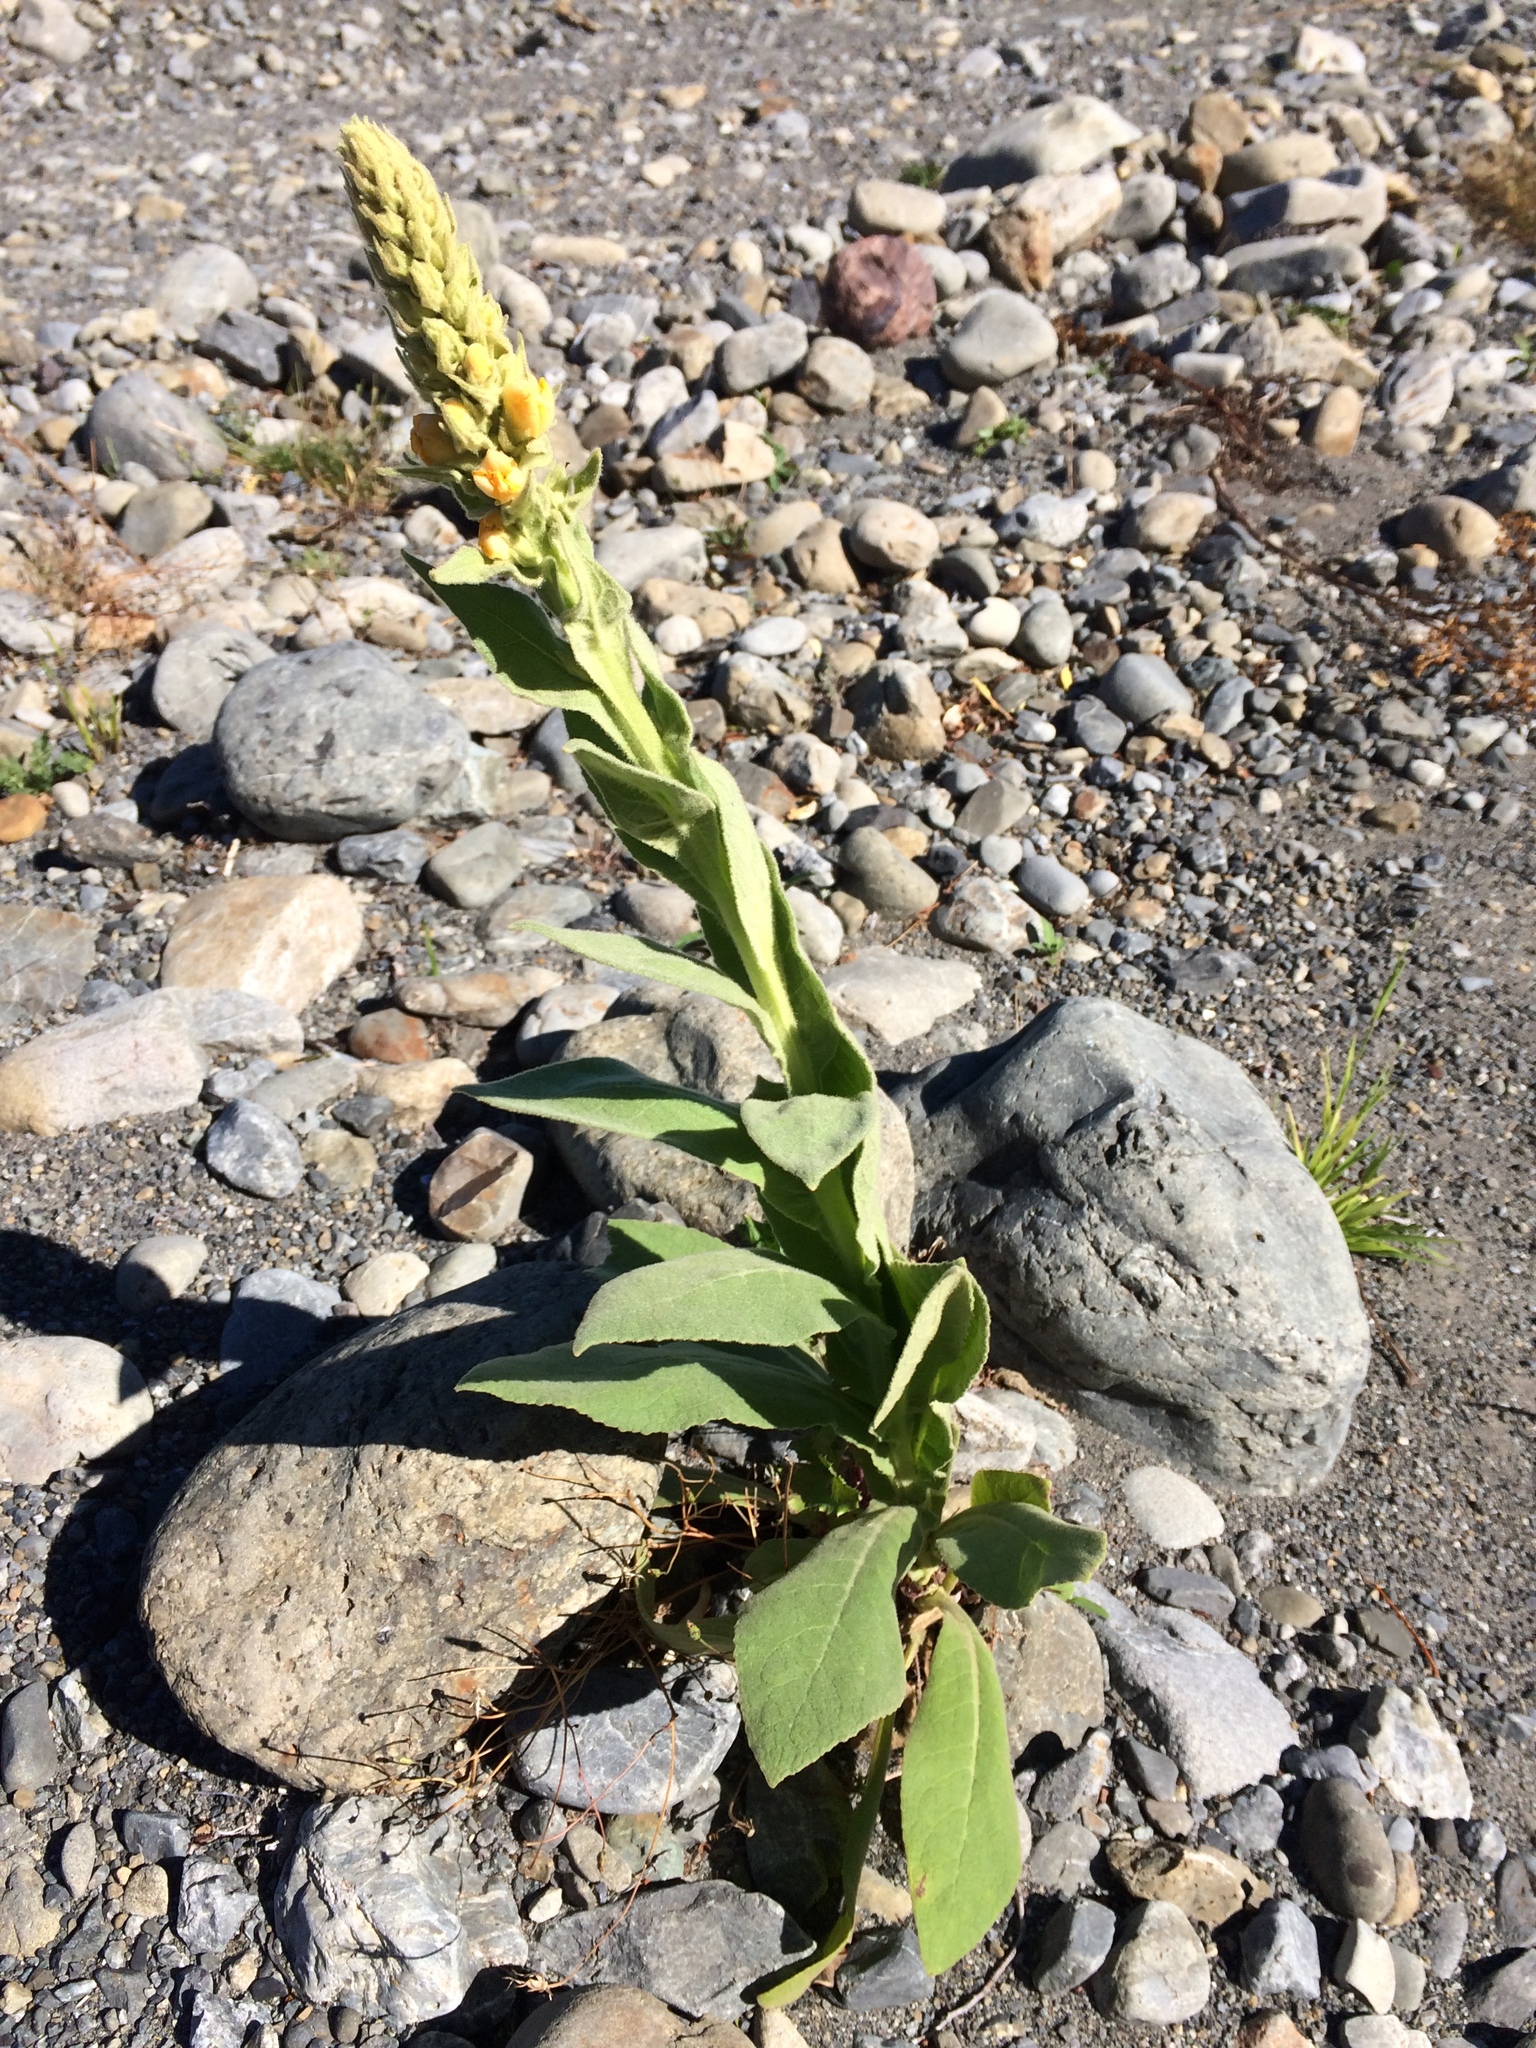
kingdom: Plantae
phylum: Tracheophyta
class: Magnoliopsida
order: Lamiales
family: Scrophulariaceae
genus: Verbascum
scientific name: Verbascum thapsus
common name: Common mullein
